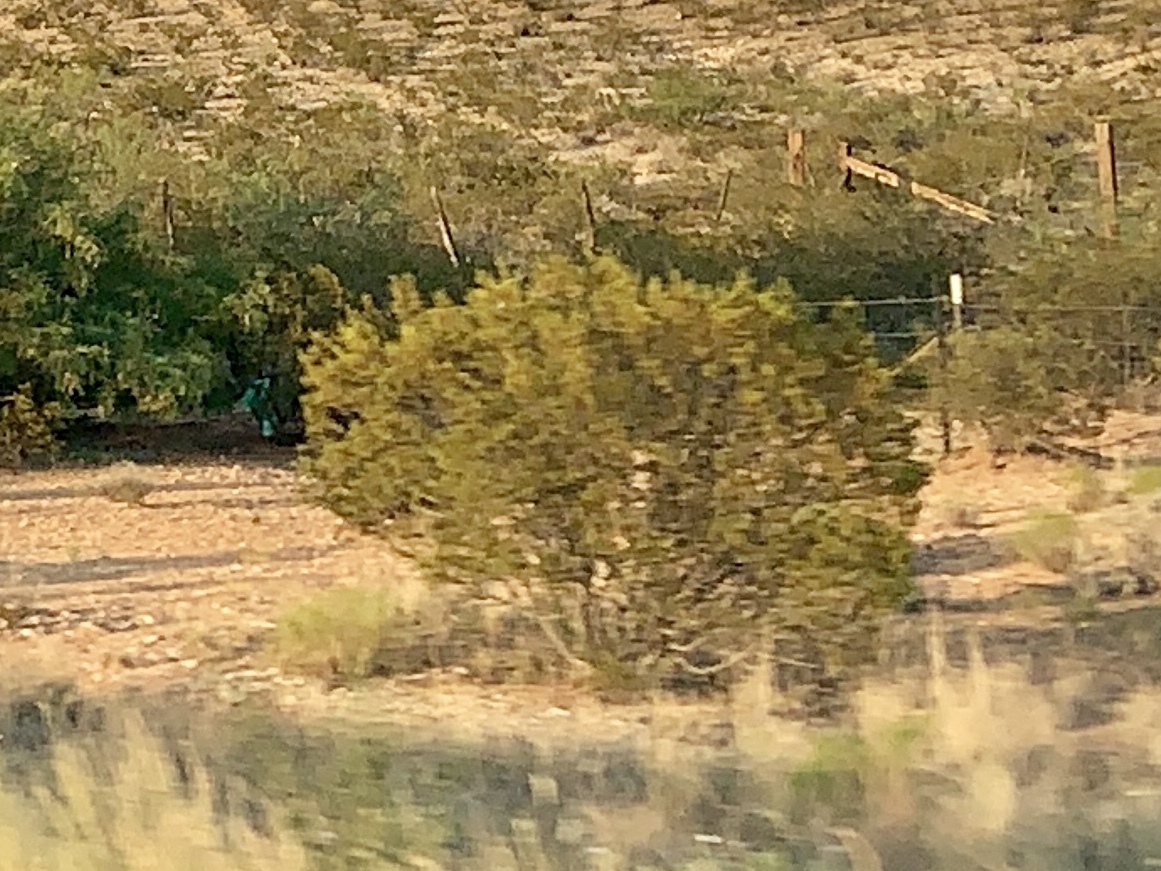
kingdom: Plantae
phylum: Tracheophyta
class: Magnoliopsida
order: Zygophyllales
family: Zygophyllaceae
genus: Larrea
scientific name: Larrea tridentata
